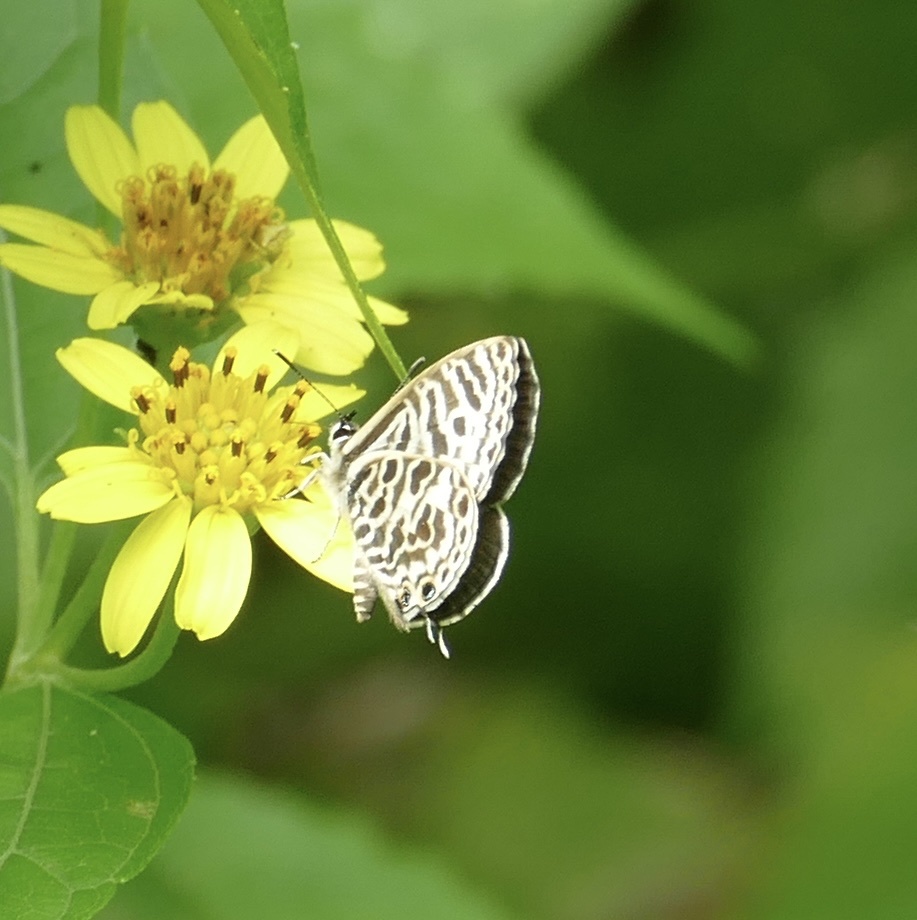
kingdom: Animalia
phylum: Arthropoda
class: Insecta
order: Lepidoptera
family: Lycaenidae
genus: Leptotes
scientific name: Leptotes plinius
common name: Zebra blue
